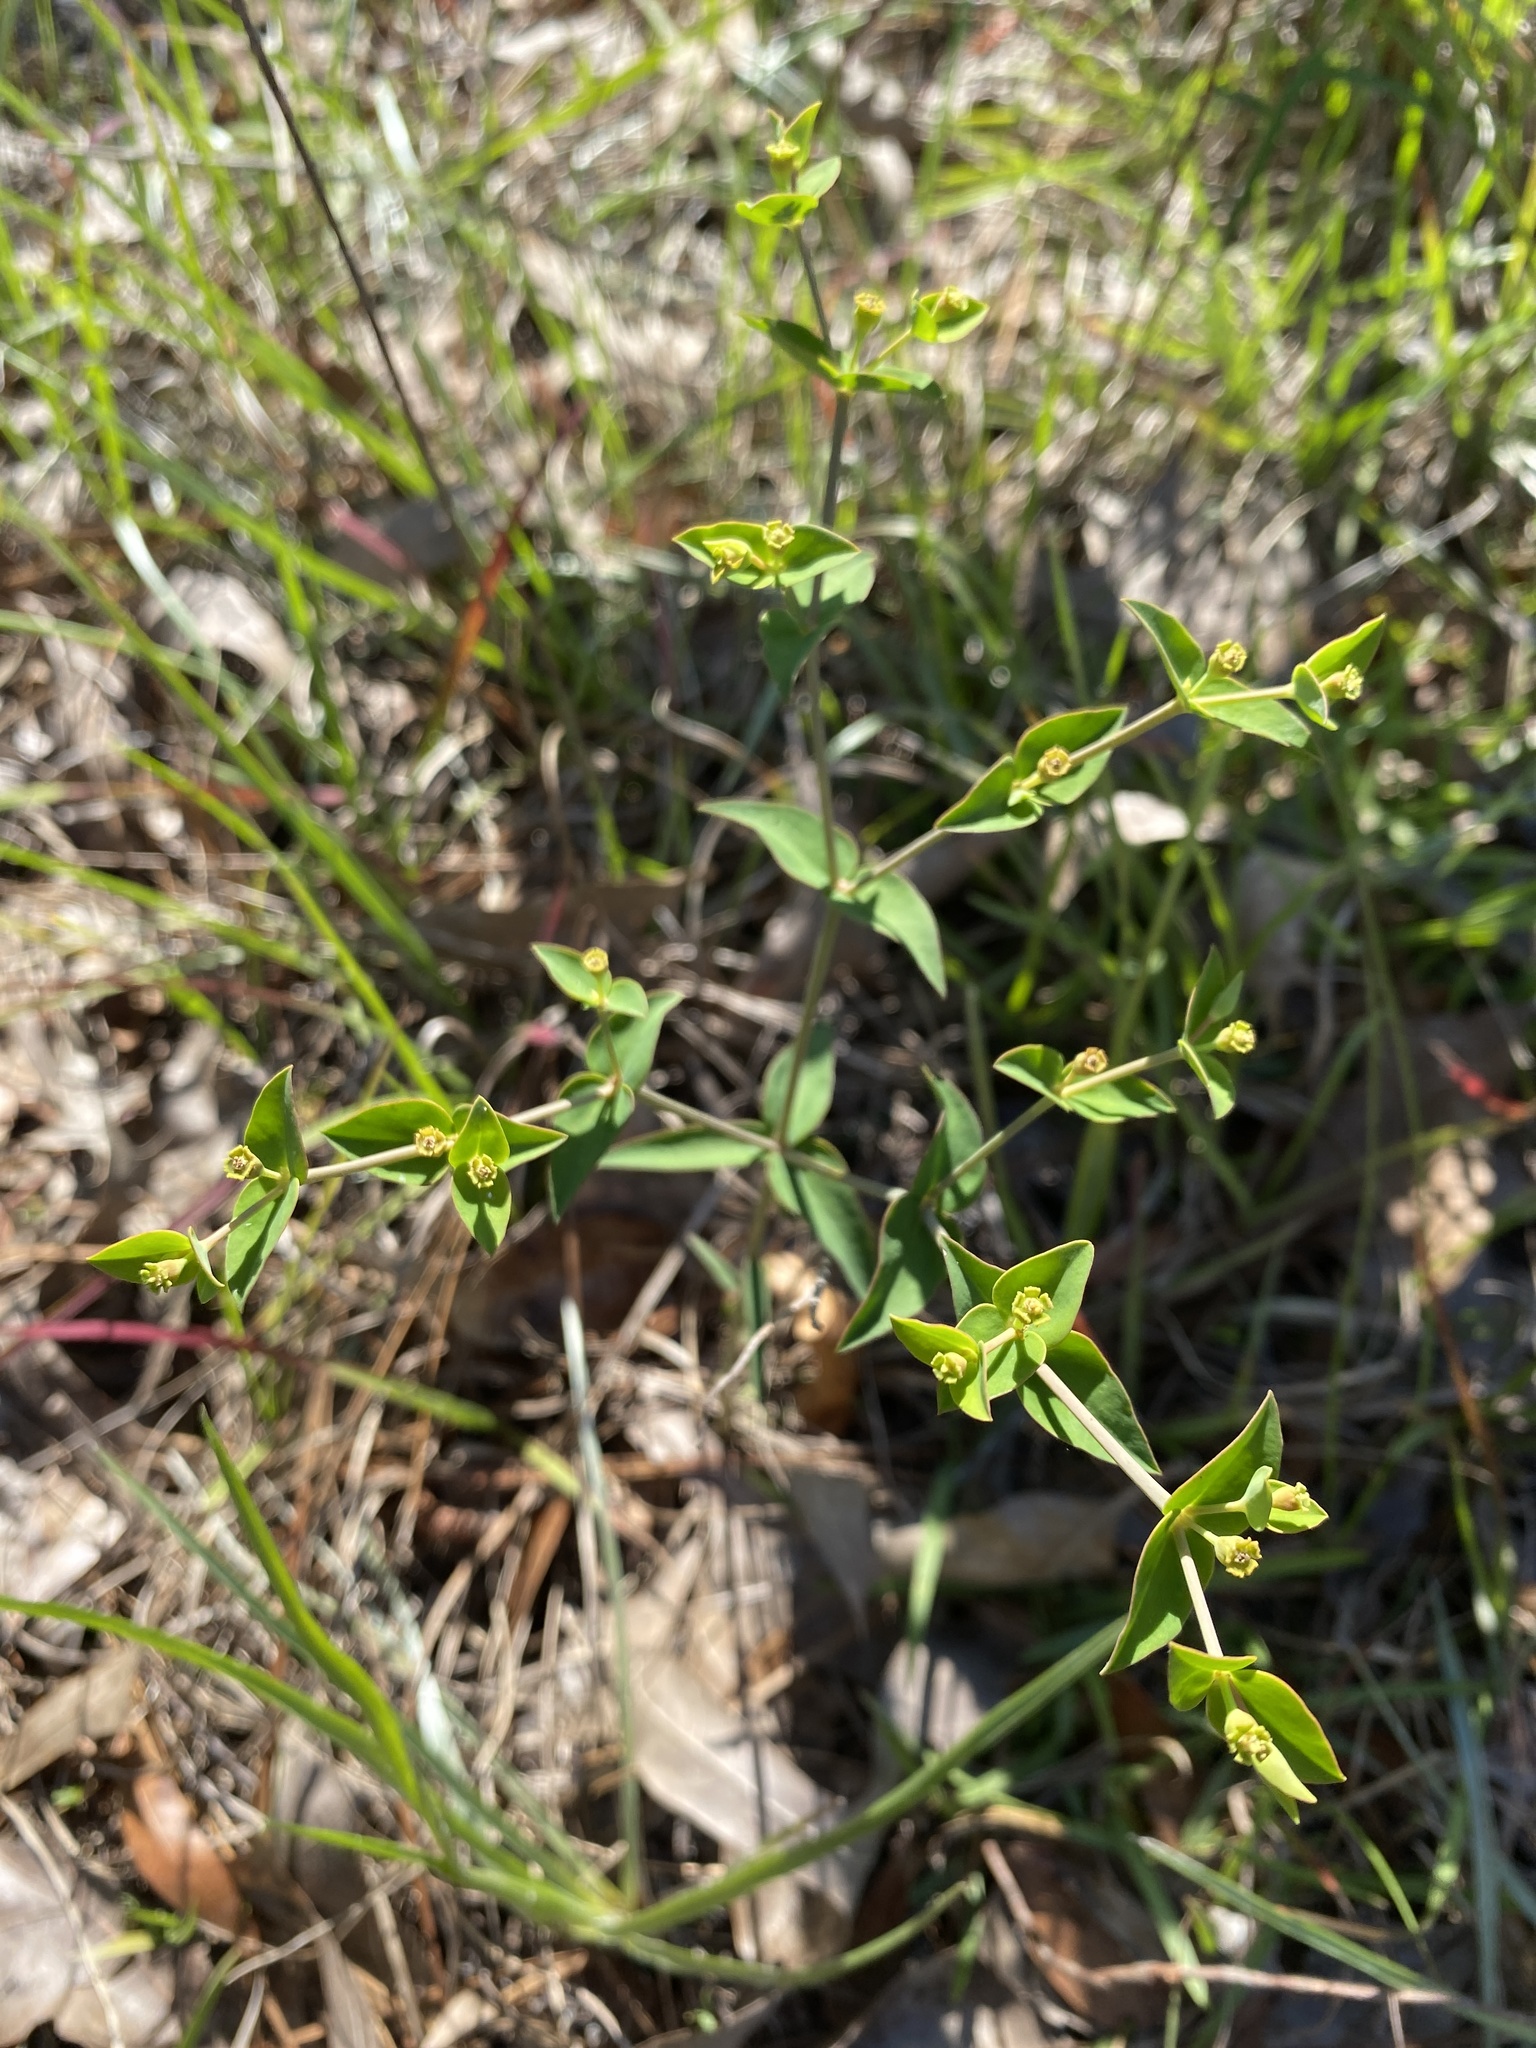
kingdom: Plantae
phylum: Tracheophyta
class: Magnoliopsida
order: Malpighiales
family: Euphorbiaceae
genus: Euphorbia
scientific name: Euphorbia floridana
